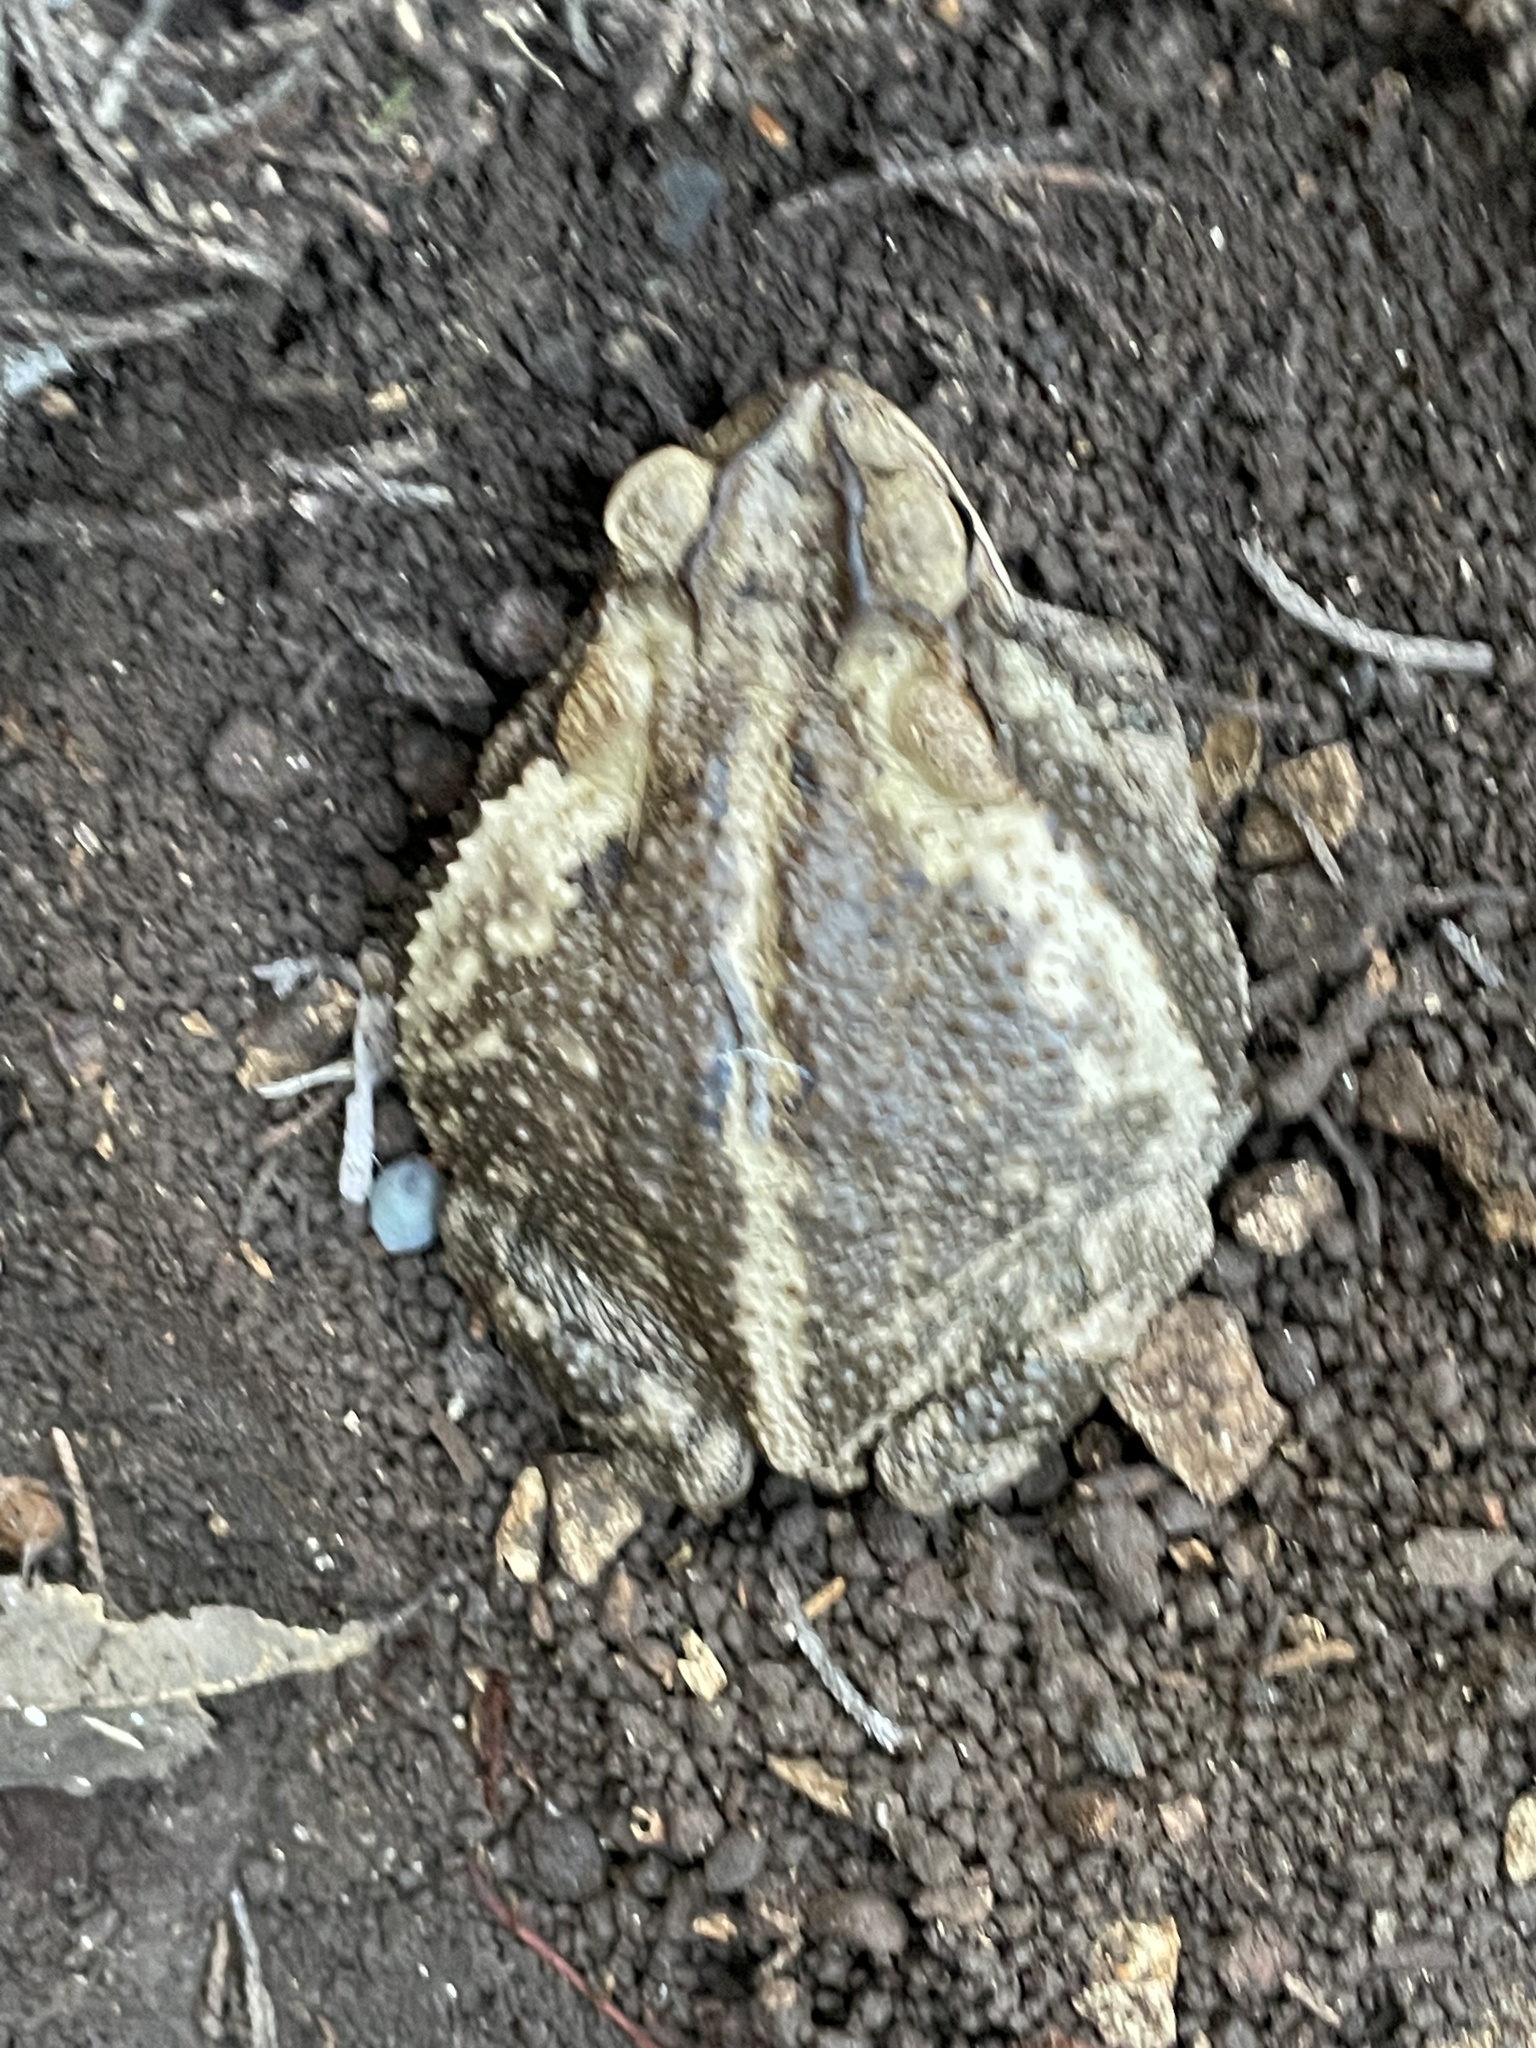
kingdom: Animalia
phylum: Chordata
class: Amphibia
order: Anura
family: Bufonidae
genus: Incilius
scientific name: Incilius nebulifer
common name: Gulf coast toad
